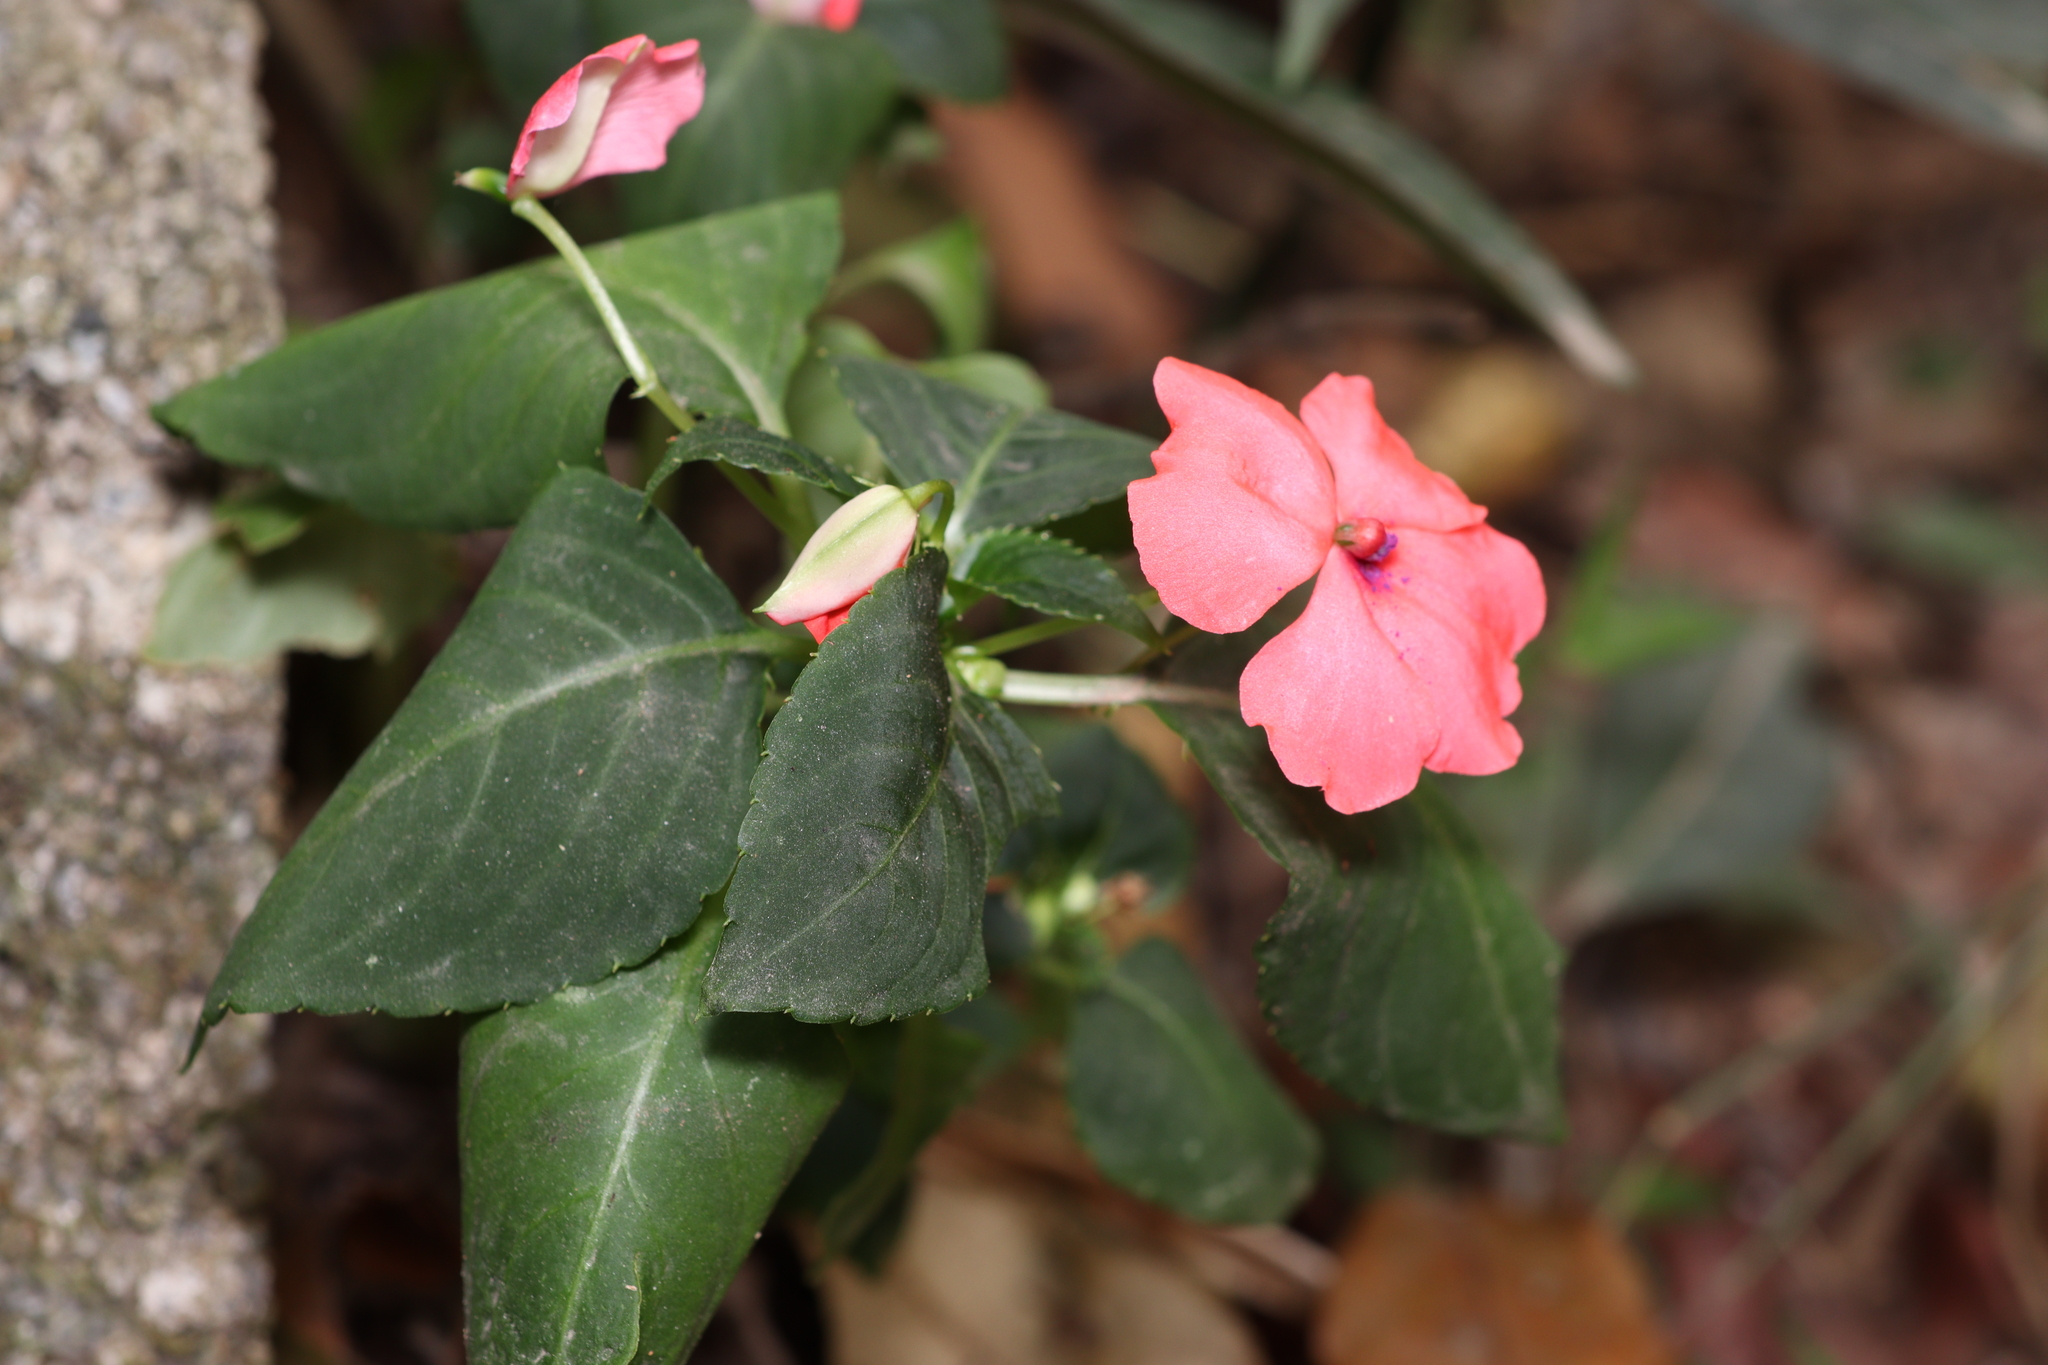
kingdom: Plantae
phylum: Tracheophyta
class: Magnoliopsida
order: Ericales
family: Balsaminaceae
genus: Impatiens
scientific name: Impatiens walleriana
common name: Buzzy lizzy
